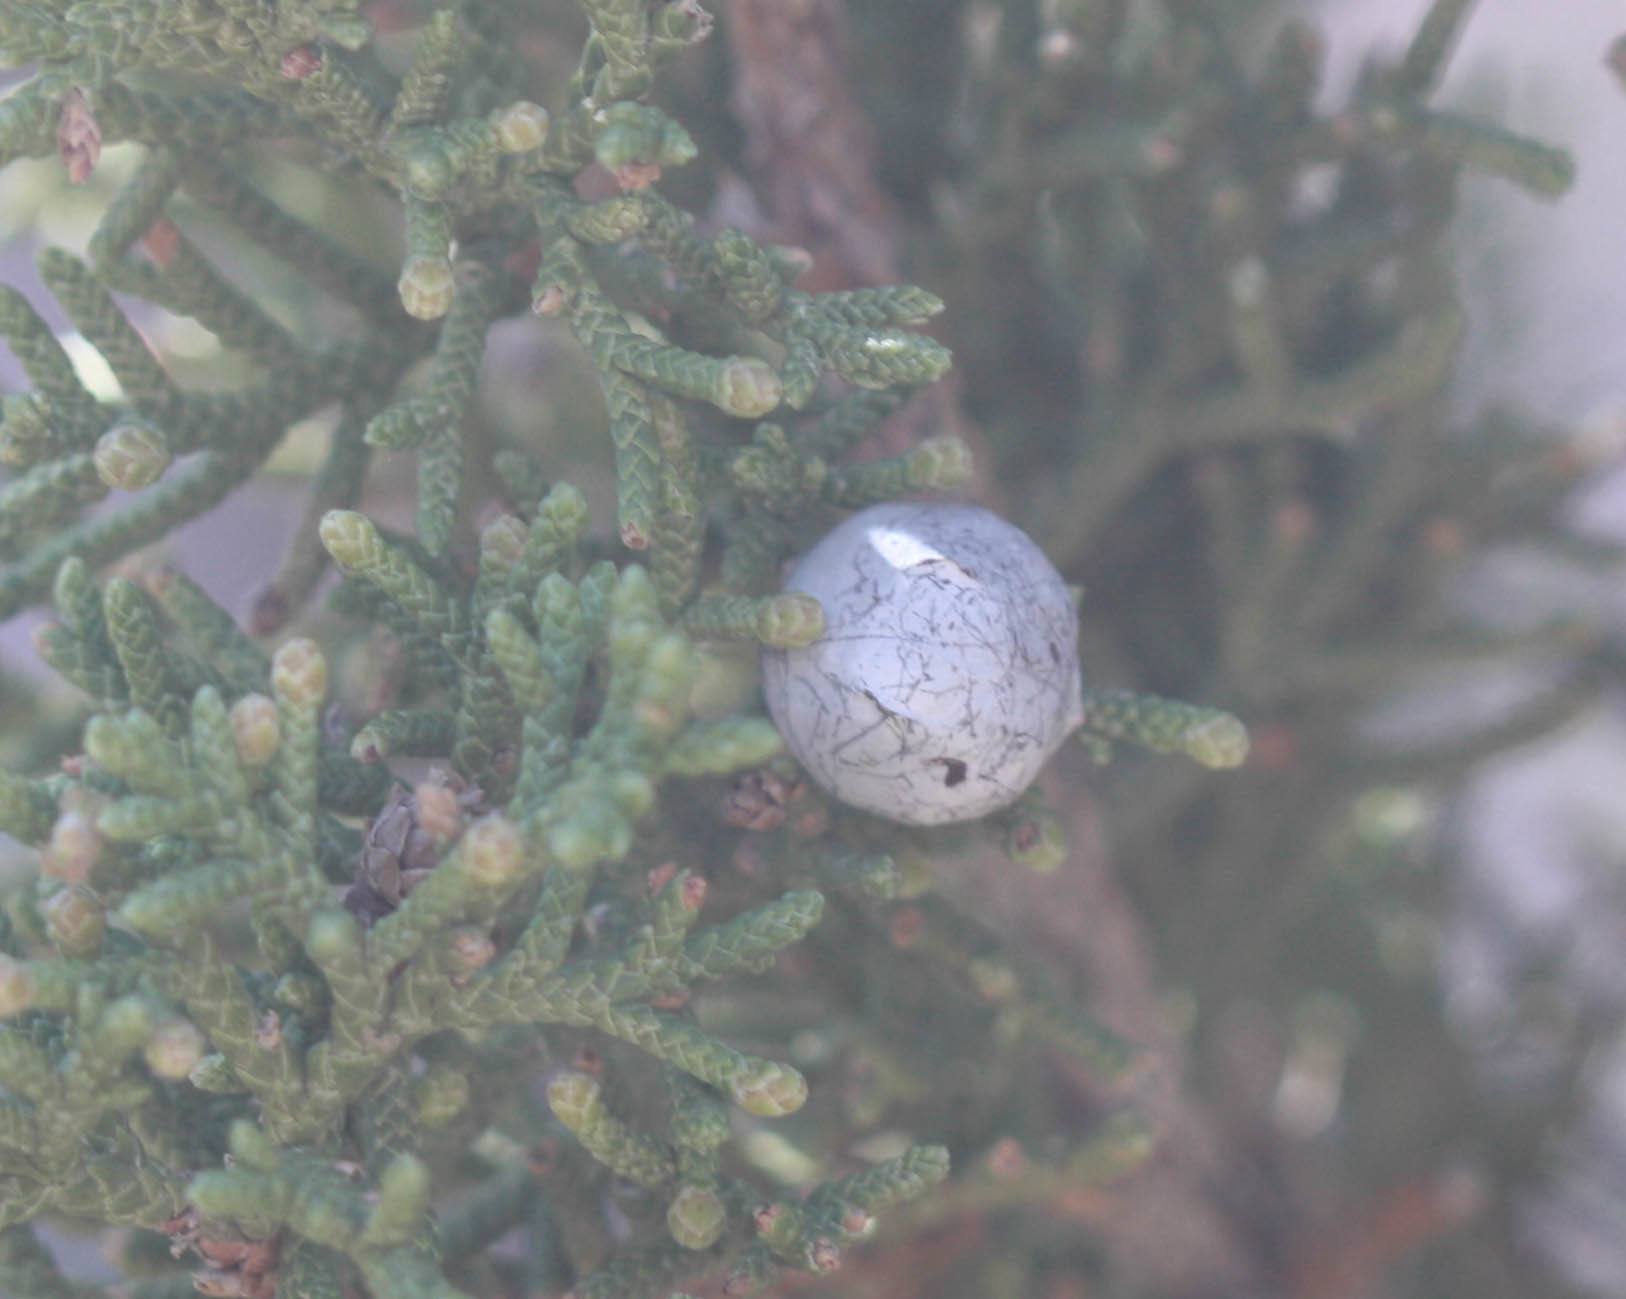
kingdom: Plantae
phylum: Tracheophyta
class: Pinopsida
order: Pinales
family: Cupressaceae
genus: Juniperus
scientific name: Juniperus osteosperma
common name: Utah juniper
